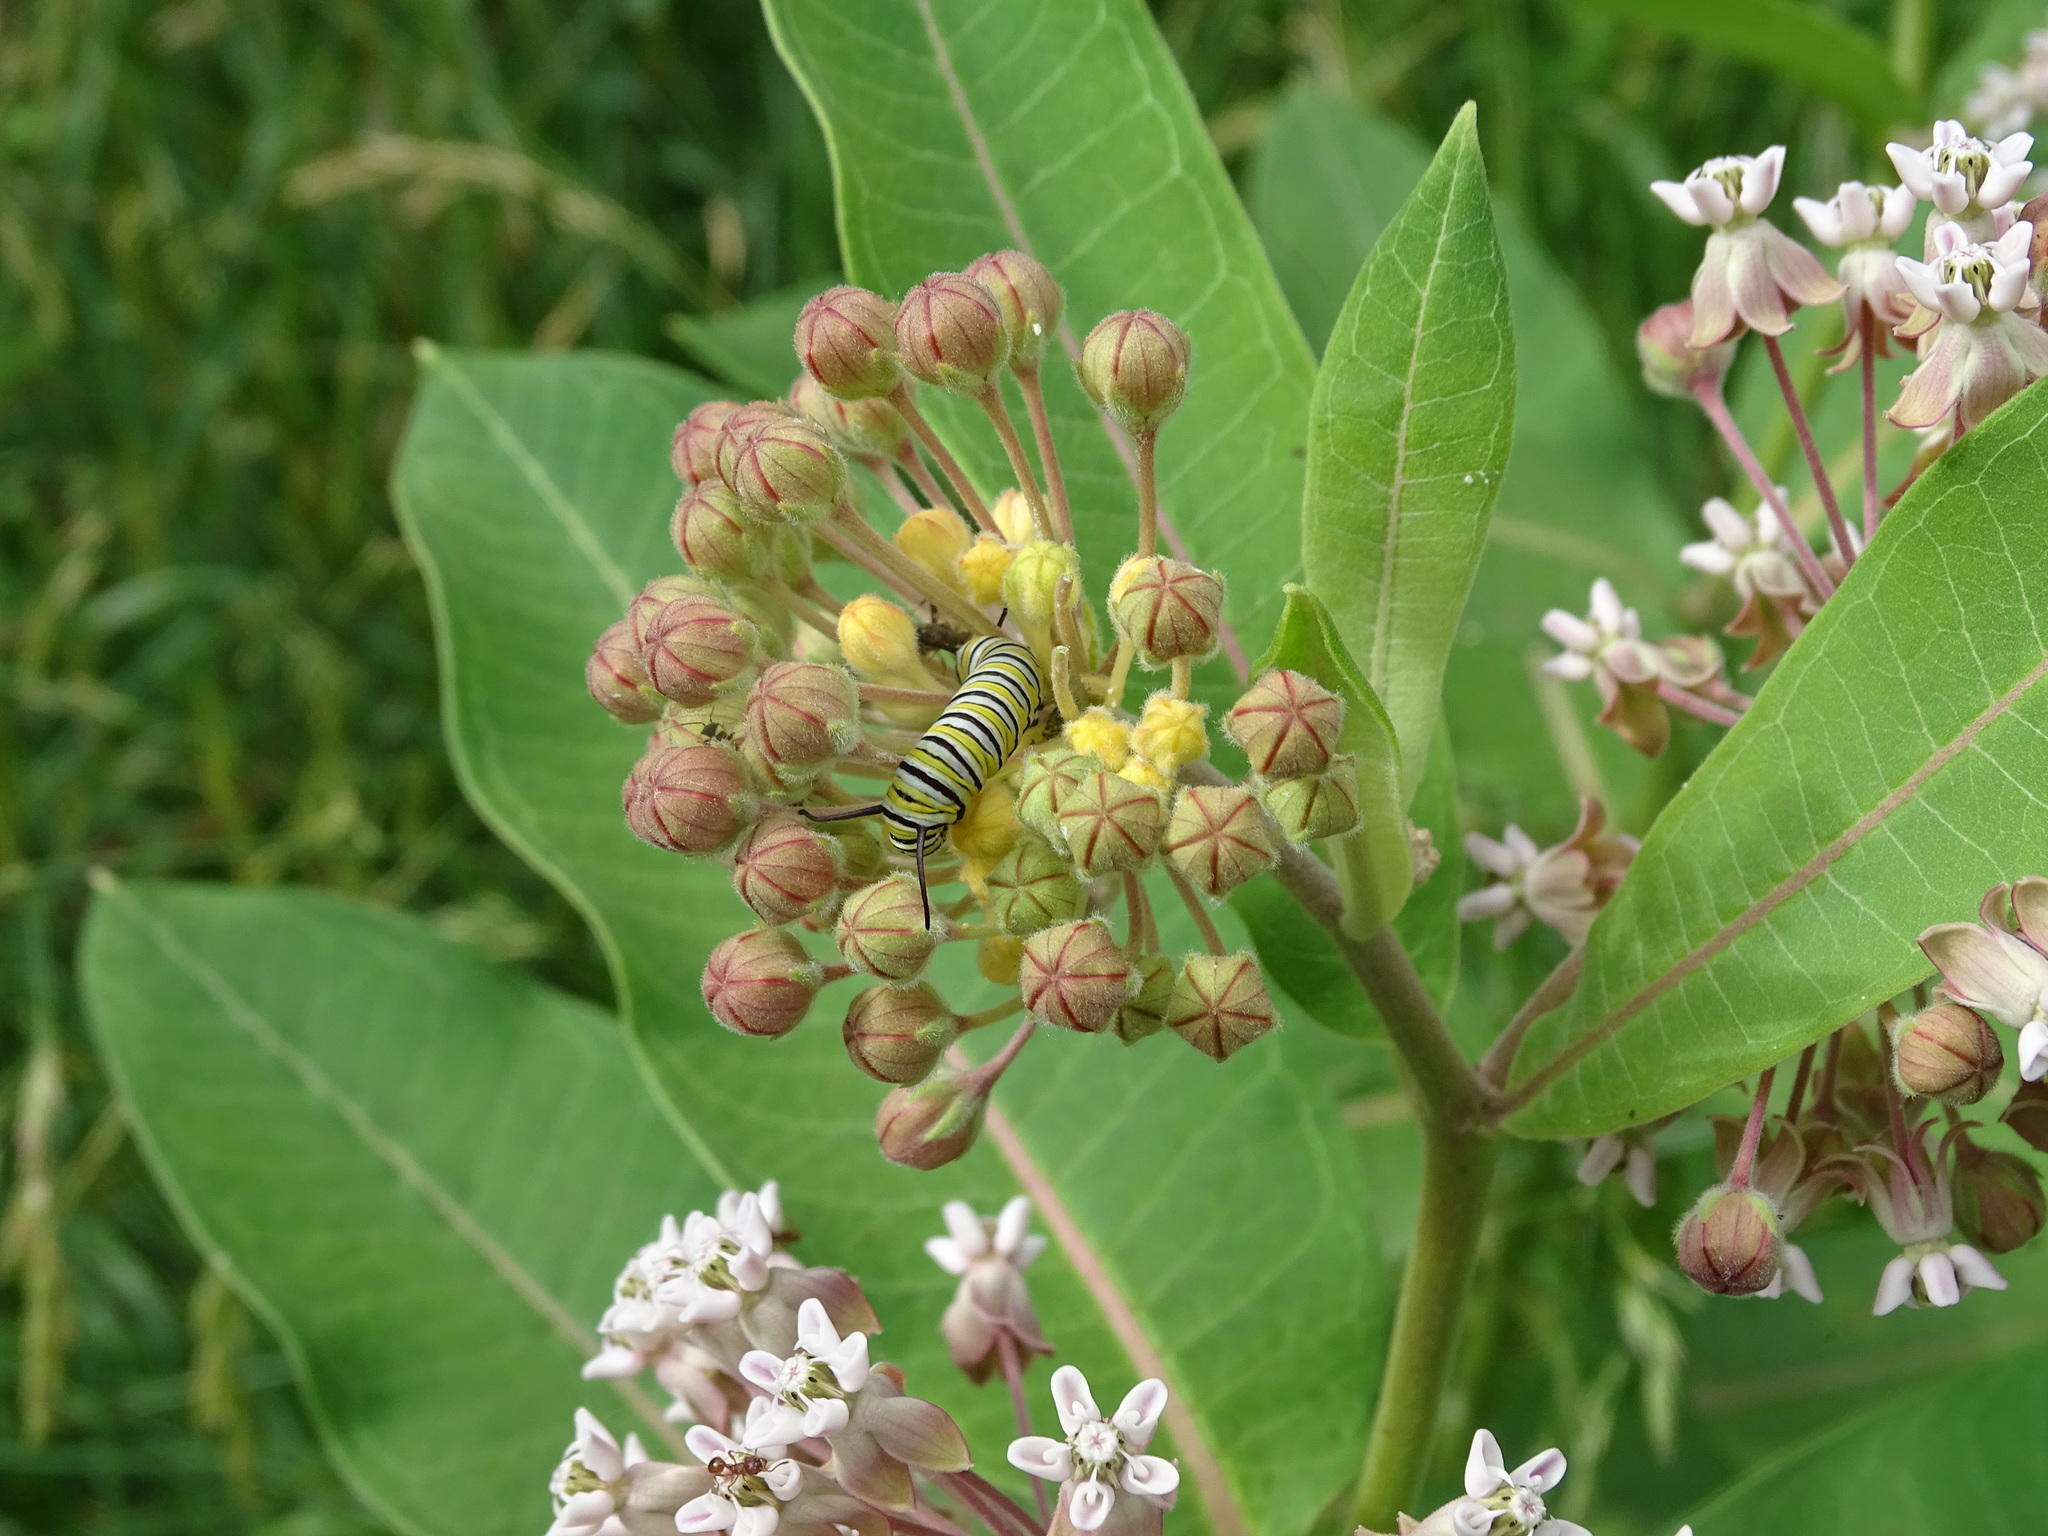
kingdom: Plantae
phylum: Tracheophyta
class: Magnoliopsida
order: Gentianales
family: Apocynaceae
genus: Asclepias
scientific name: Asclepias syriaca
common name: Common milkweed
